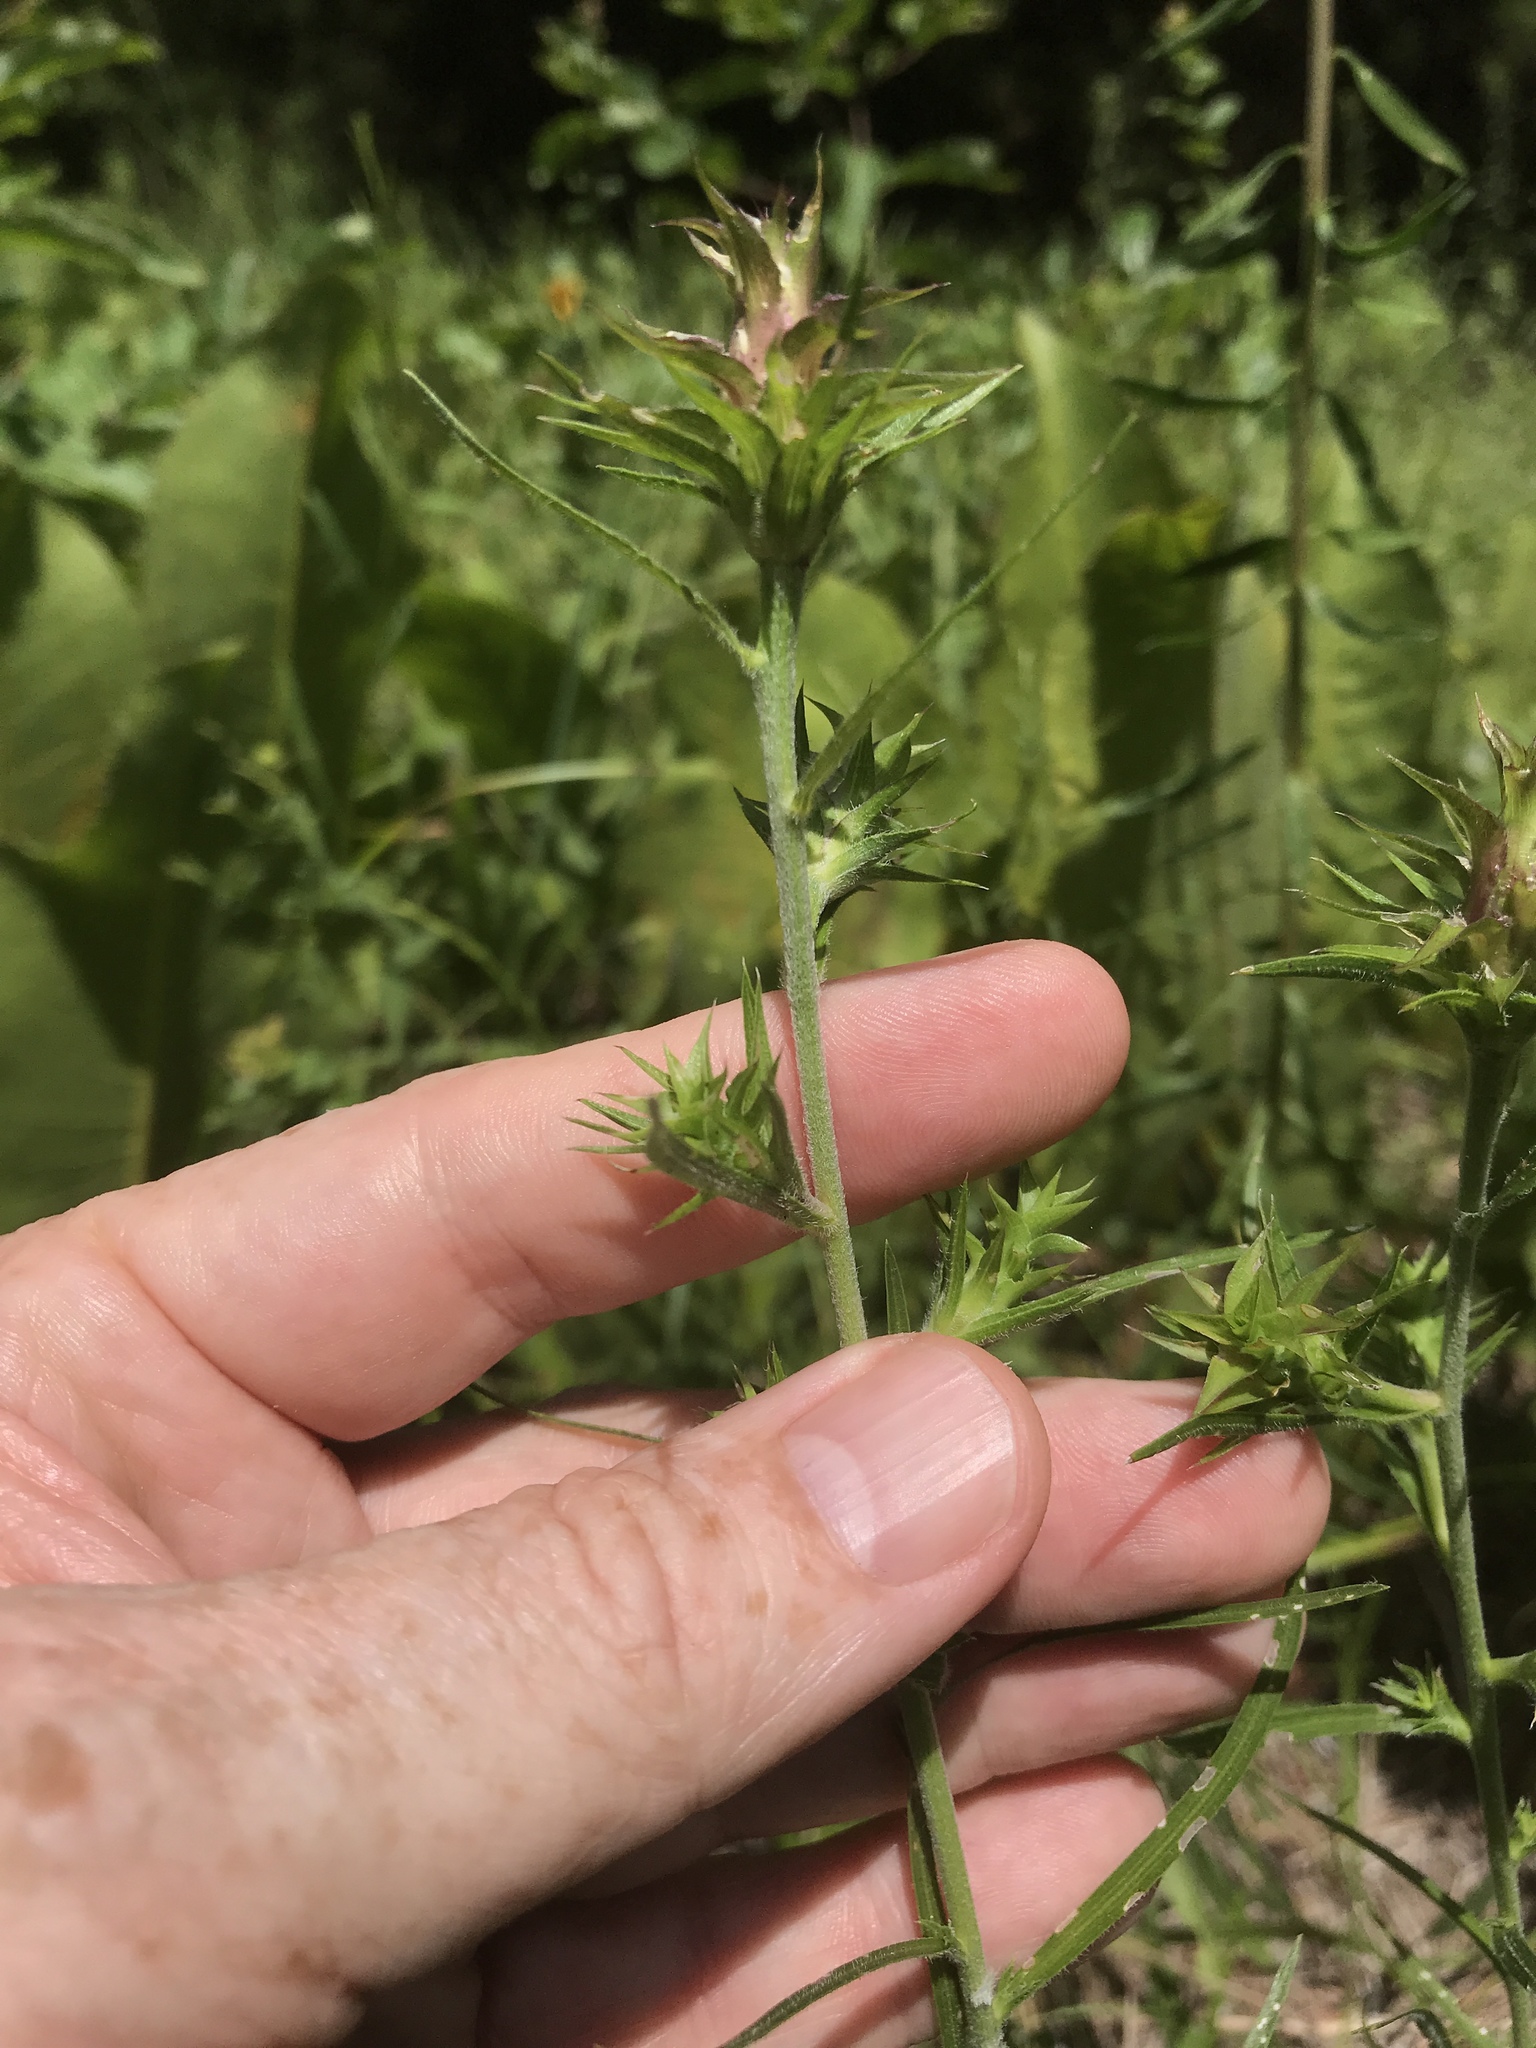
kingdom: Plantae
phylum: Tracheophyta
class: Magnoliopsida
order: Asterales
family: Asteraceae
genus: Liatris
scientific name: Liatris squarrosa
